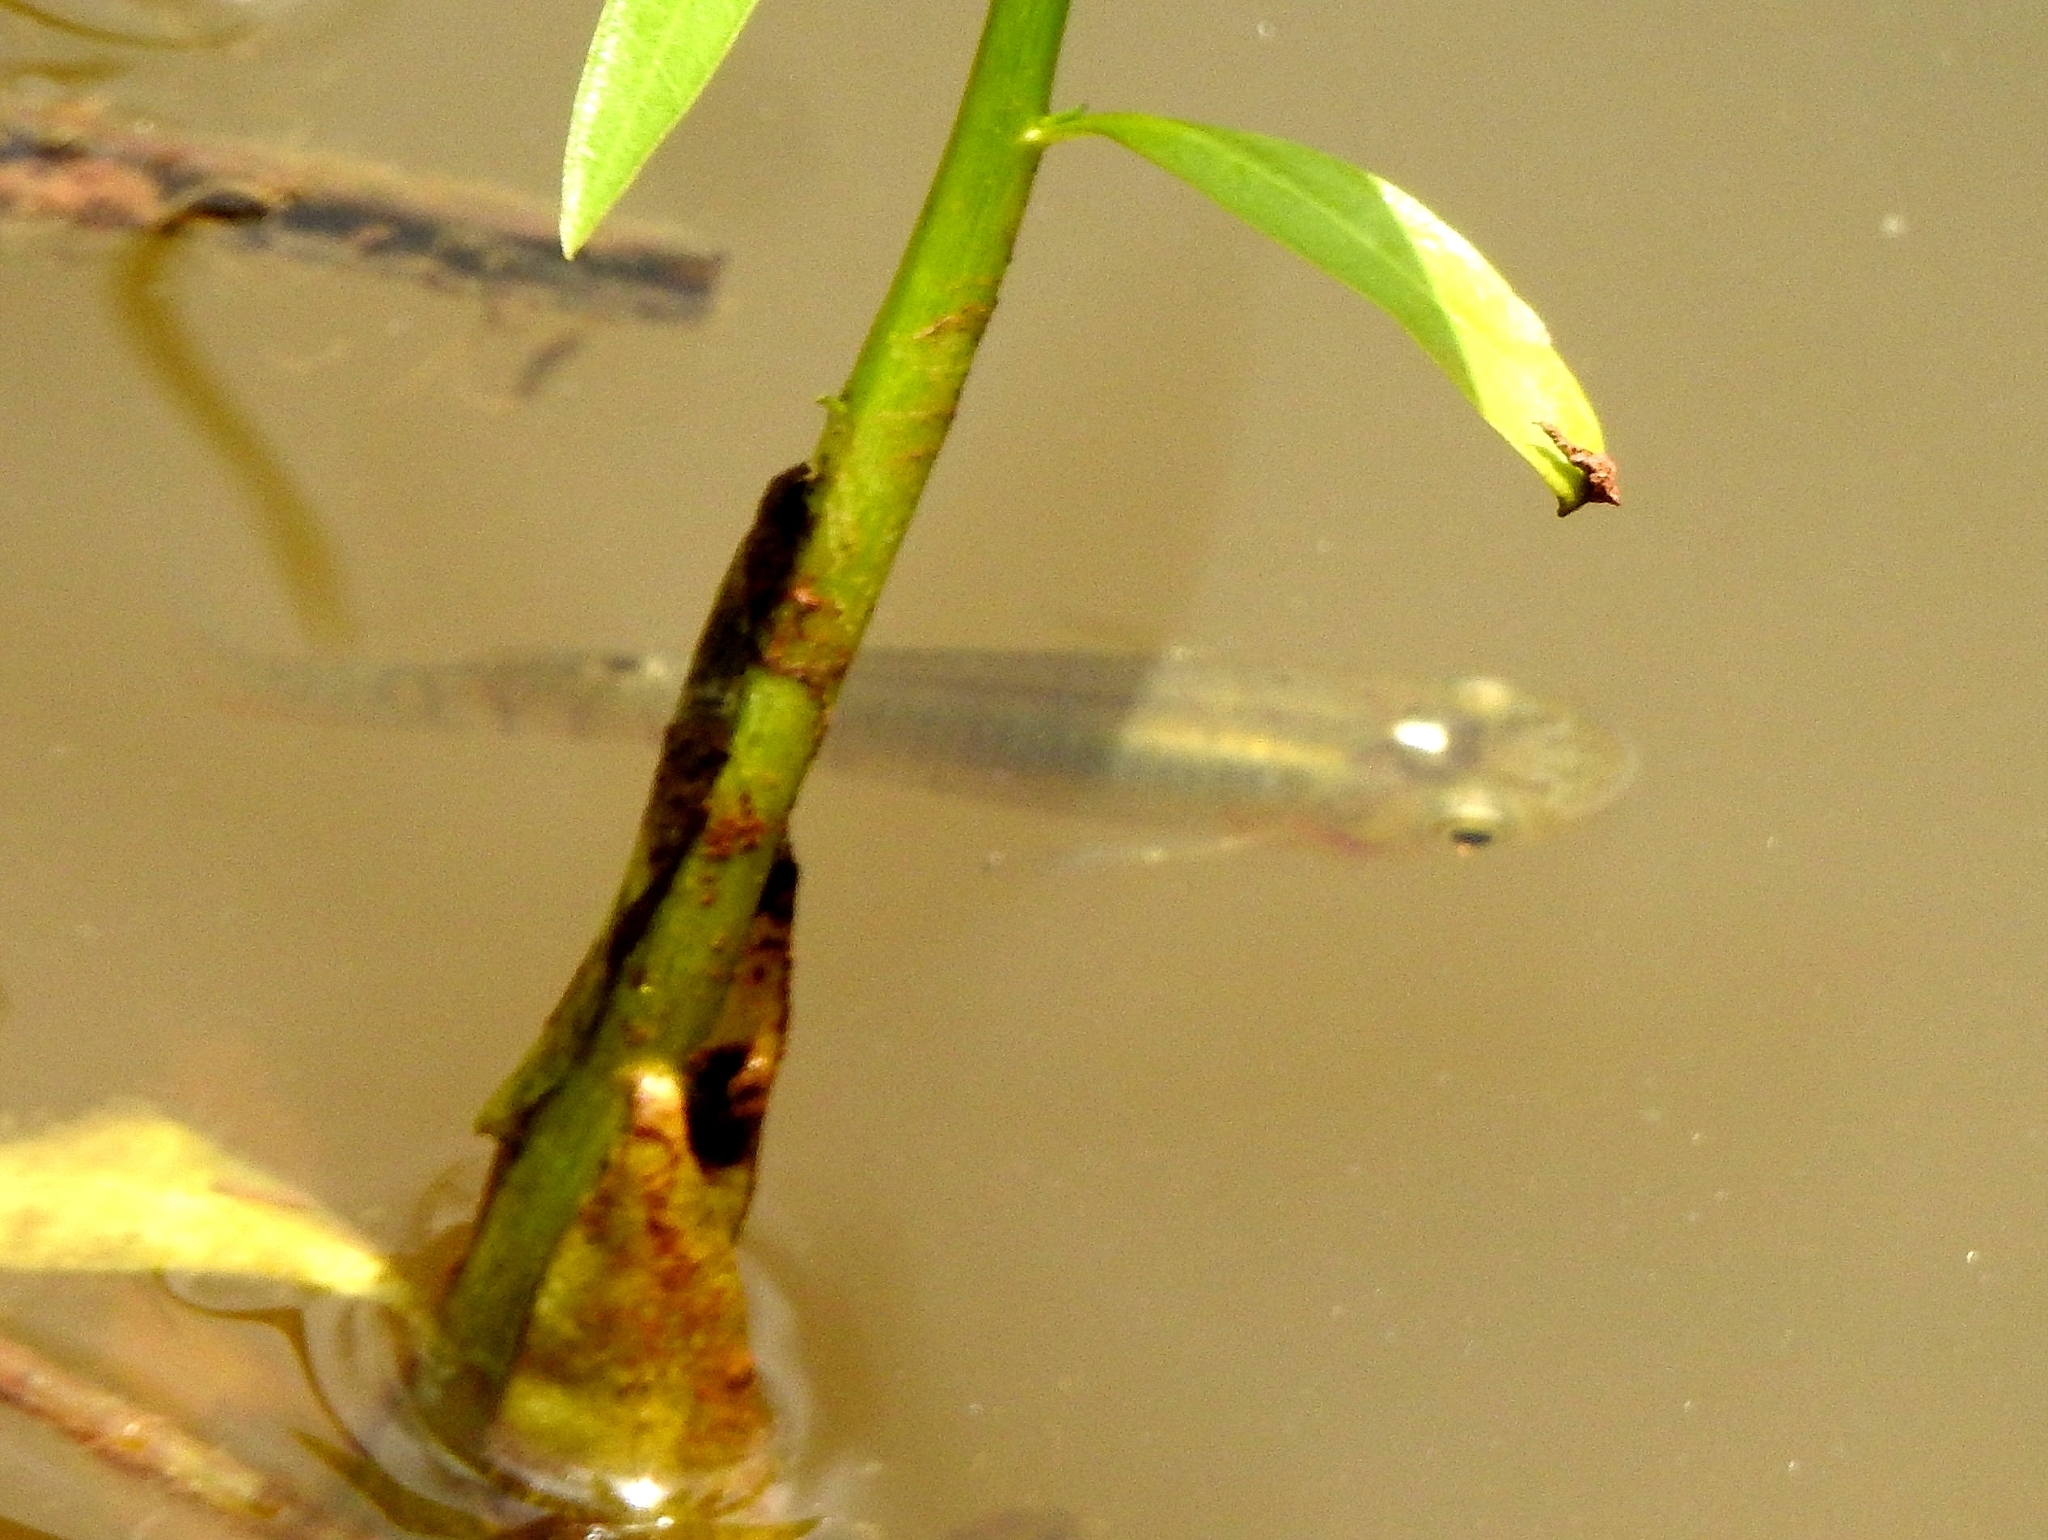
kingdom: Animalia
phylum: Chordata
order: Cyprinodontiformes
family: Aplocheilidae
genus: Aplocheilus
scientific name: Aplocheilus panchax
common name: Blue panchax
